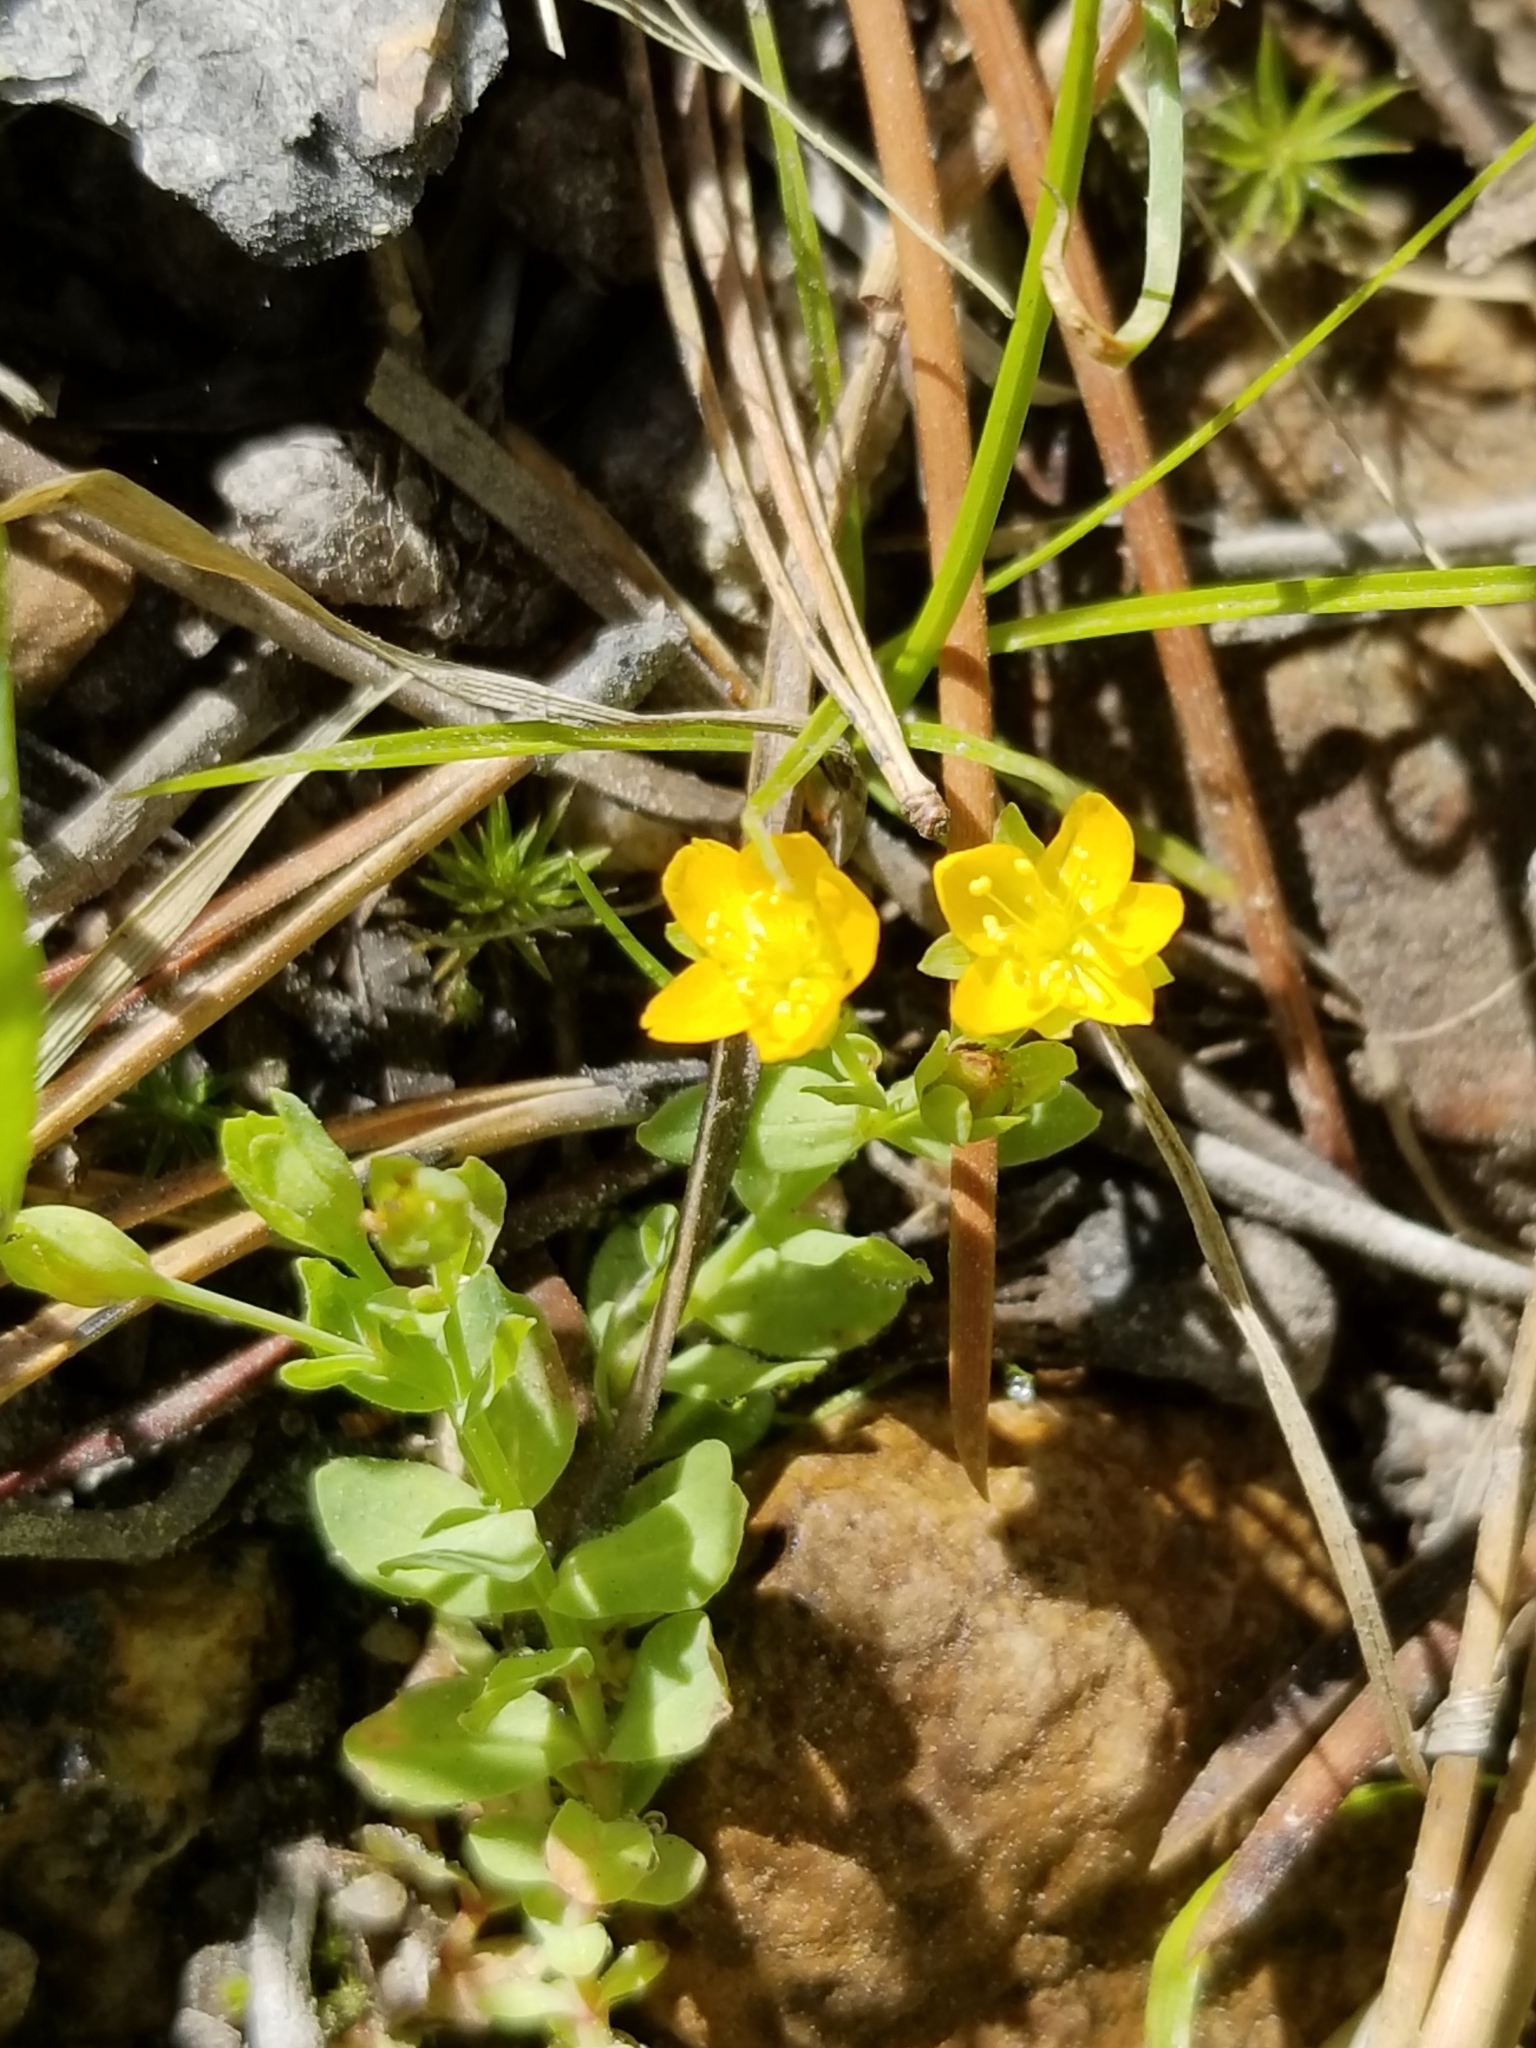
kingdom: Plantae
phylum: Tracheophyta
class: Magnoliopsida
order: Malpighiales
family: Hypericaceae
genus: Hypericum
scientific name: Hypericum anagalloides
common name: Bog st. john's-wort
